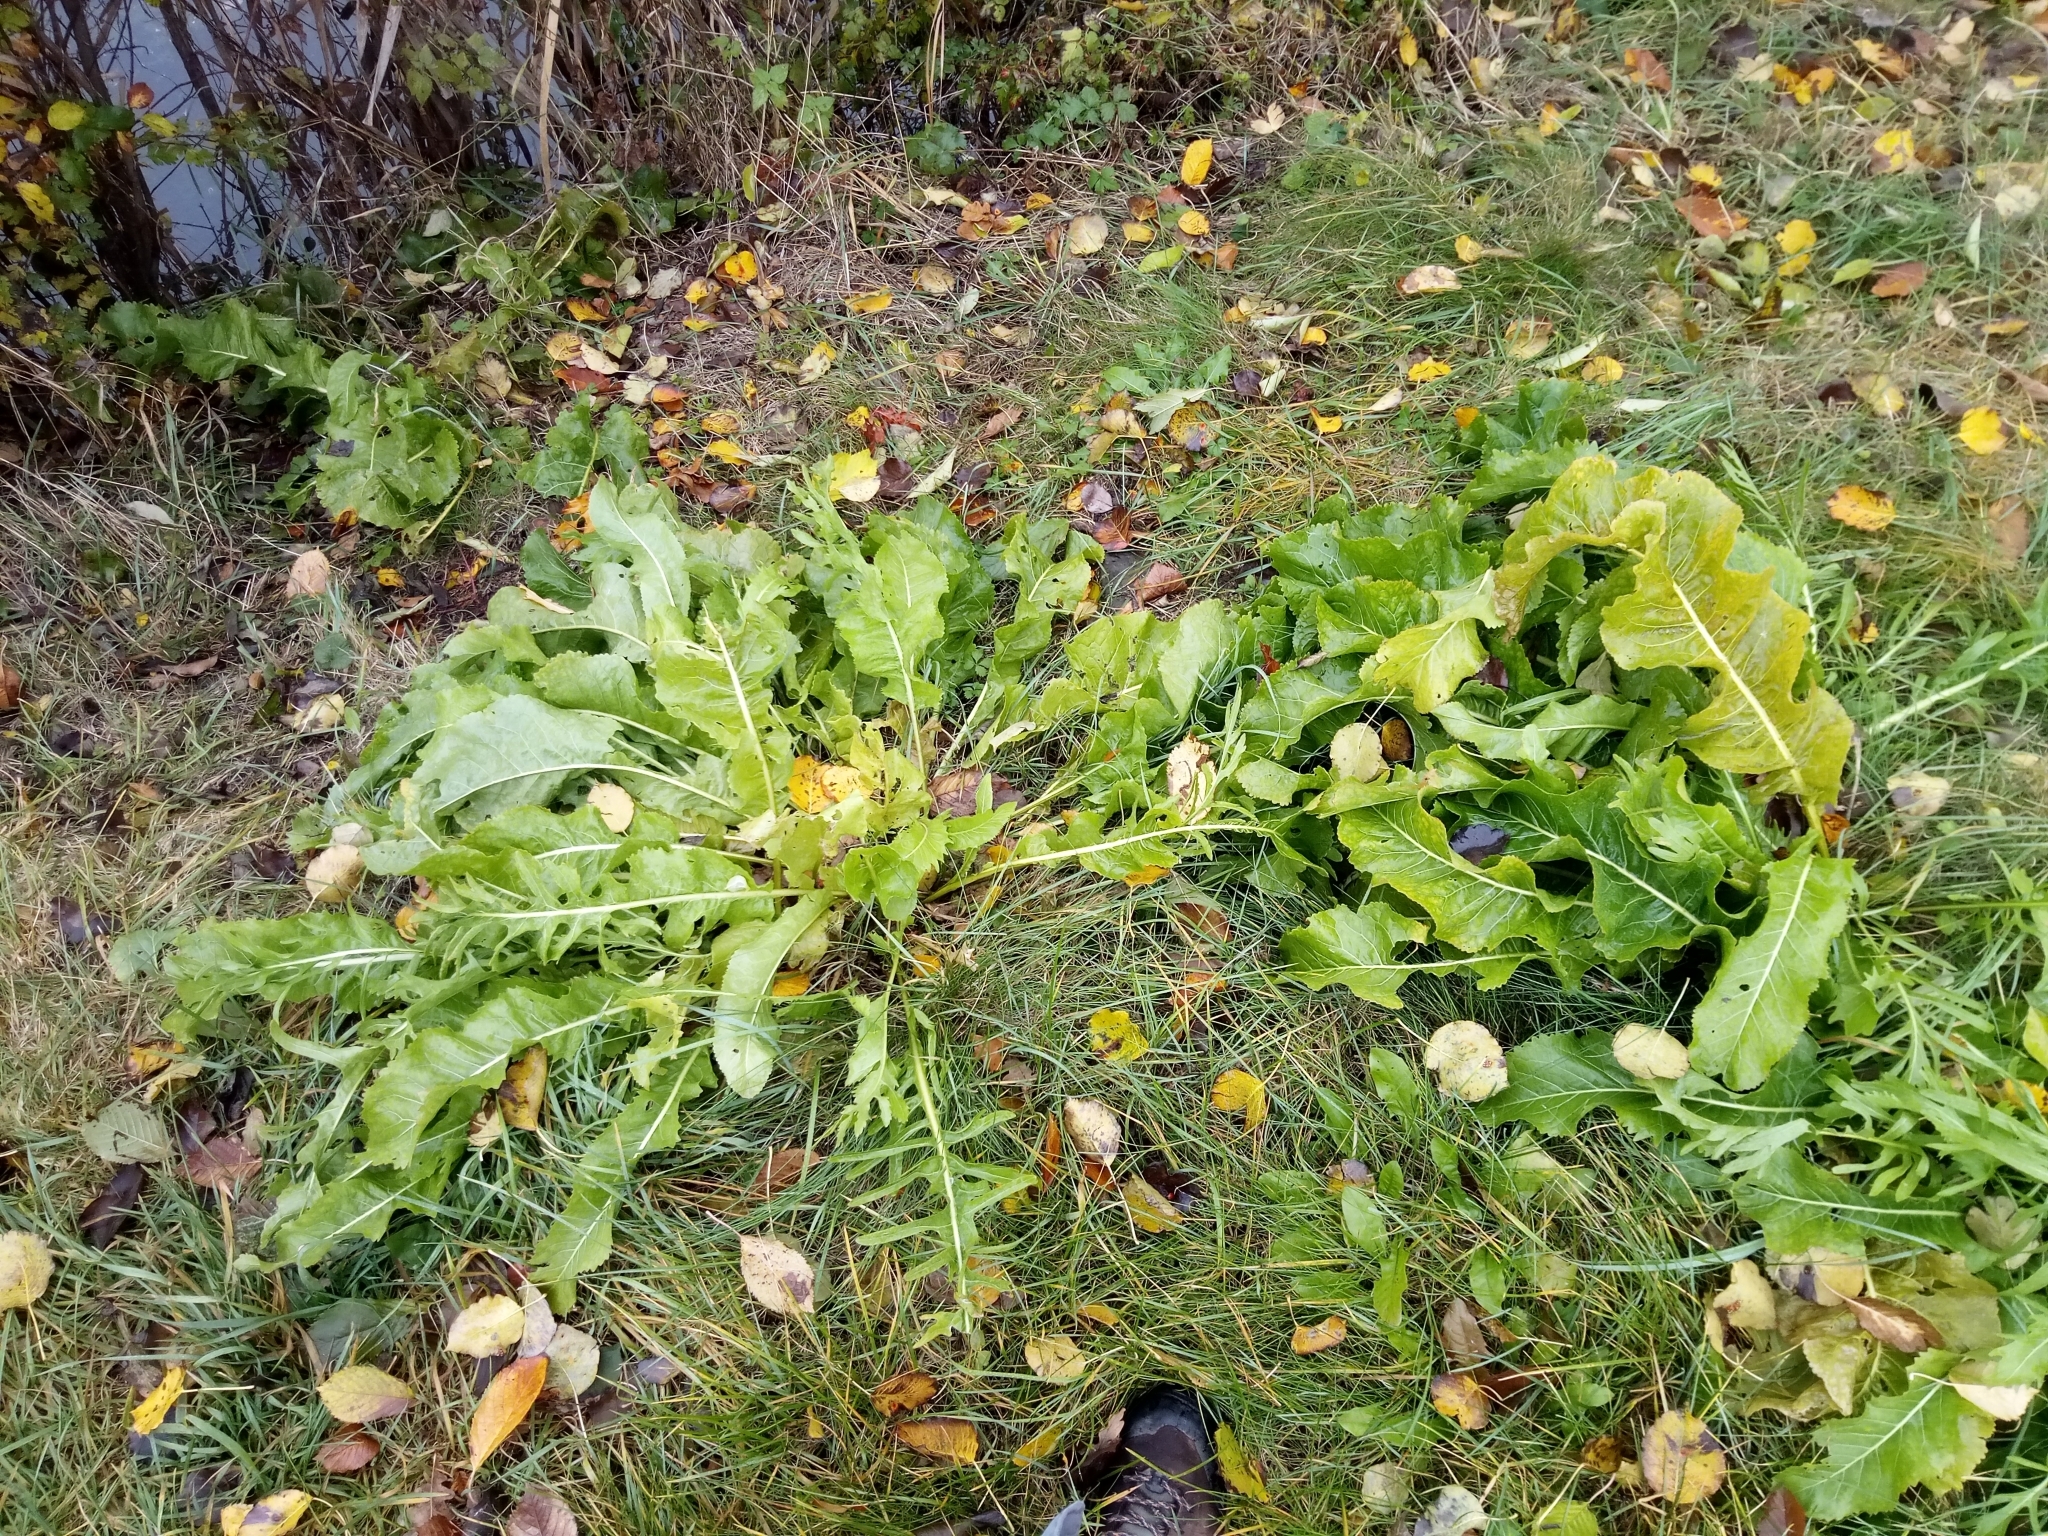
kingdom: Plantae
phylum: Tracheophyta
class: Magnoliopsida
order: Brassicales
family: Brassicaceae
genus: Armoracia
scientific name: Armoracia rusticana
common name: Horseradish
